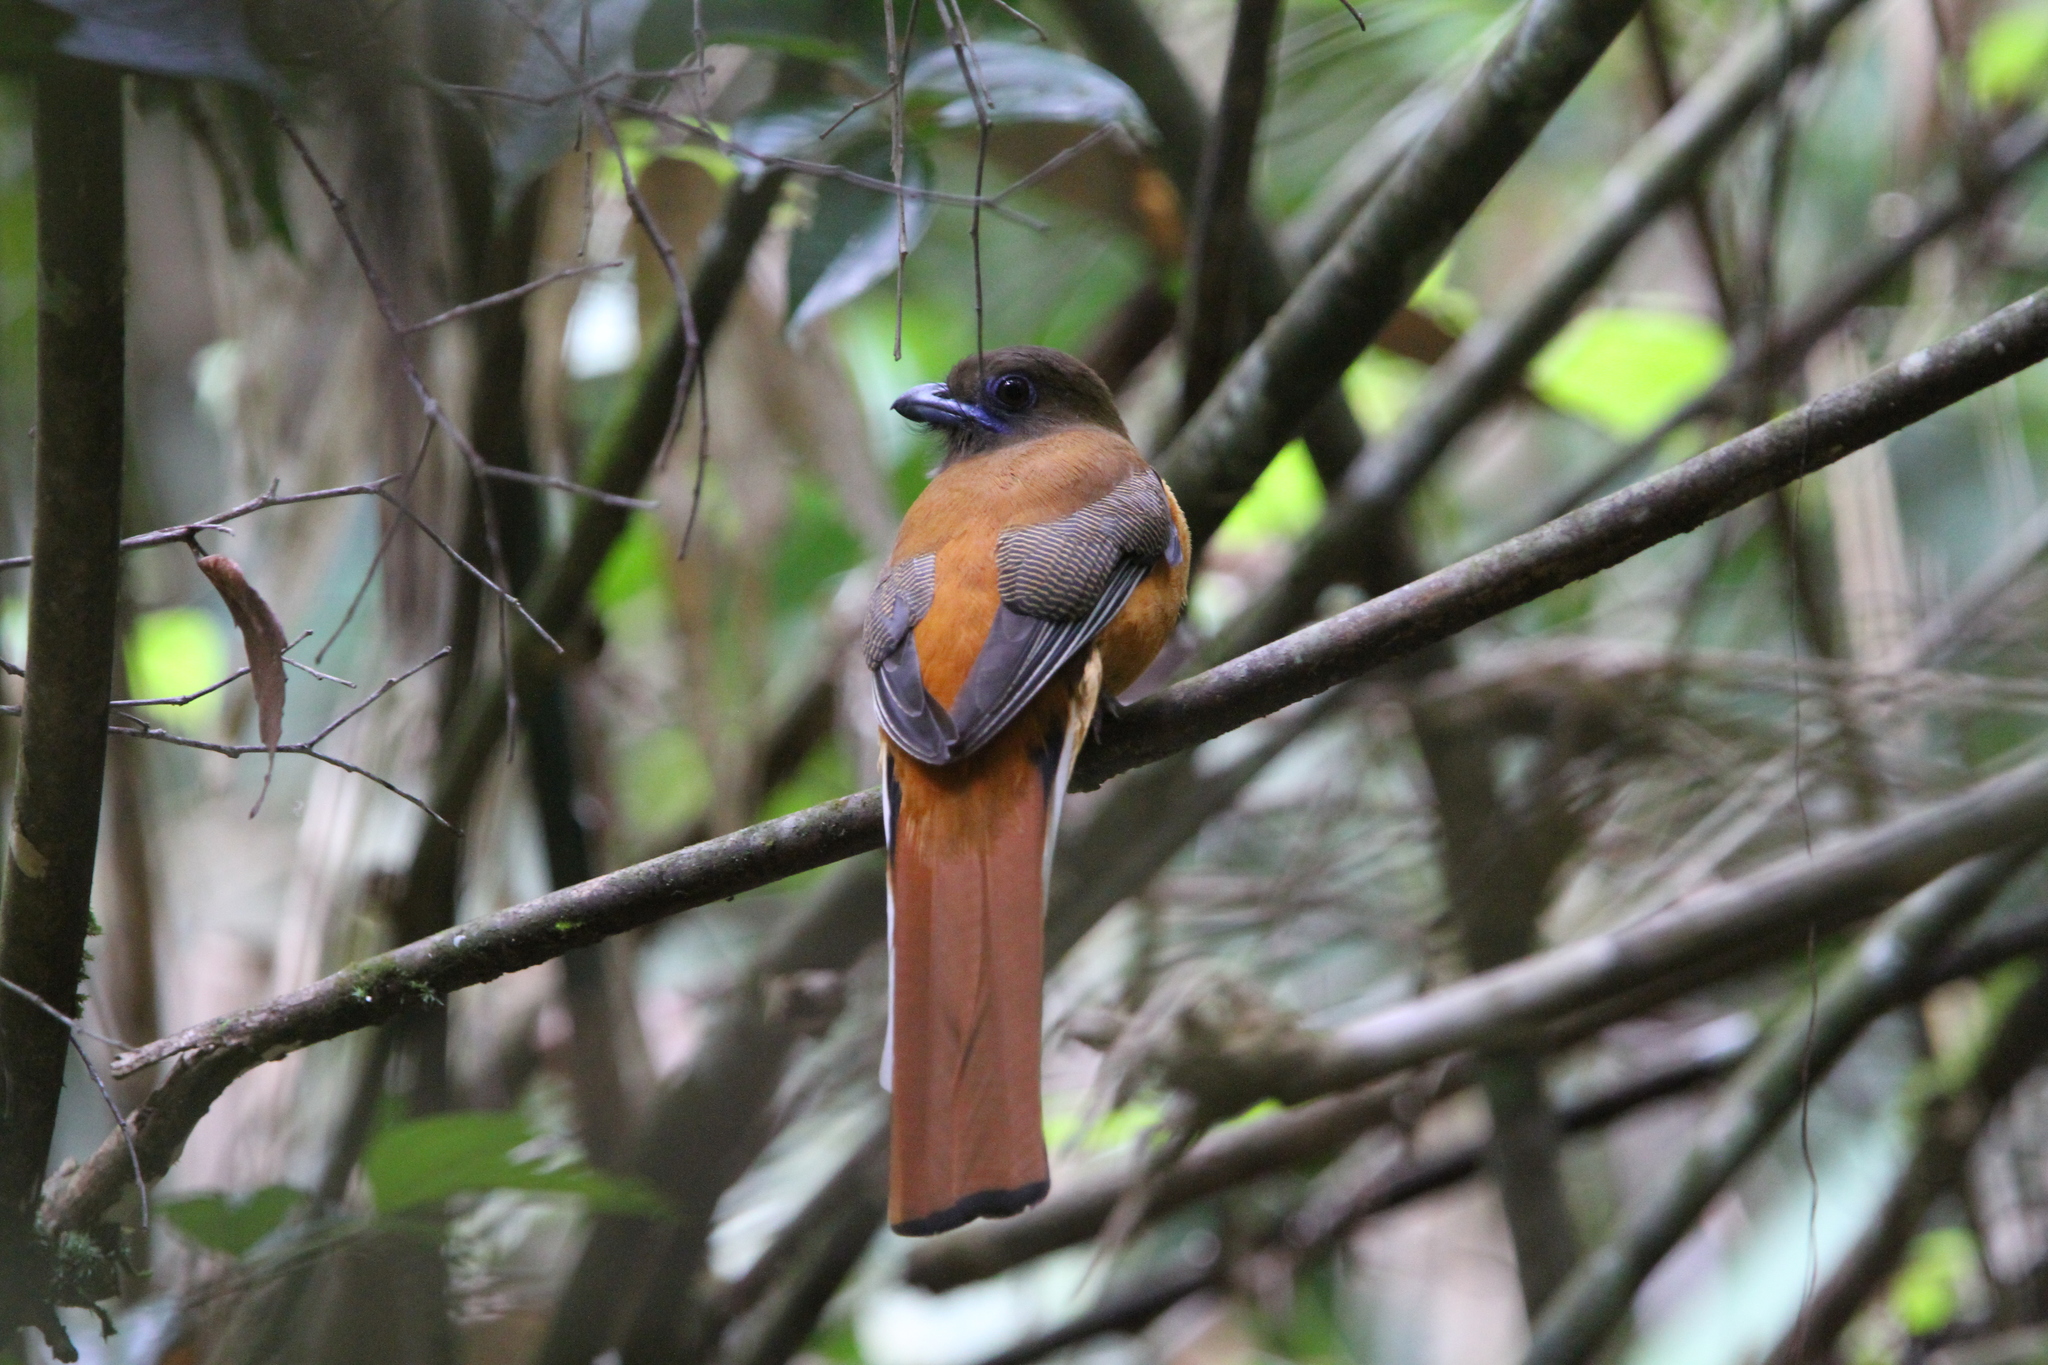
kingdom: Animalia
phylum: Chordata
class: Aves
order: Trogoniformes
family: Trogonidae
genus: Harpactes
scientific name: Harpactes fasciatus
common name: Malabar trogon
